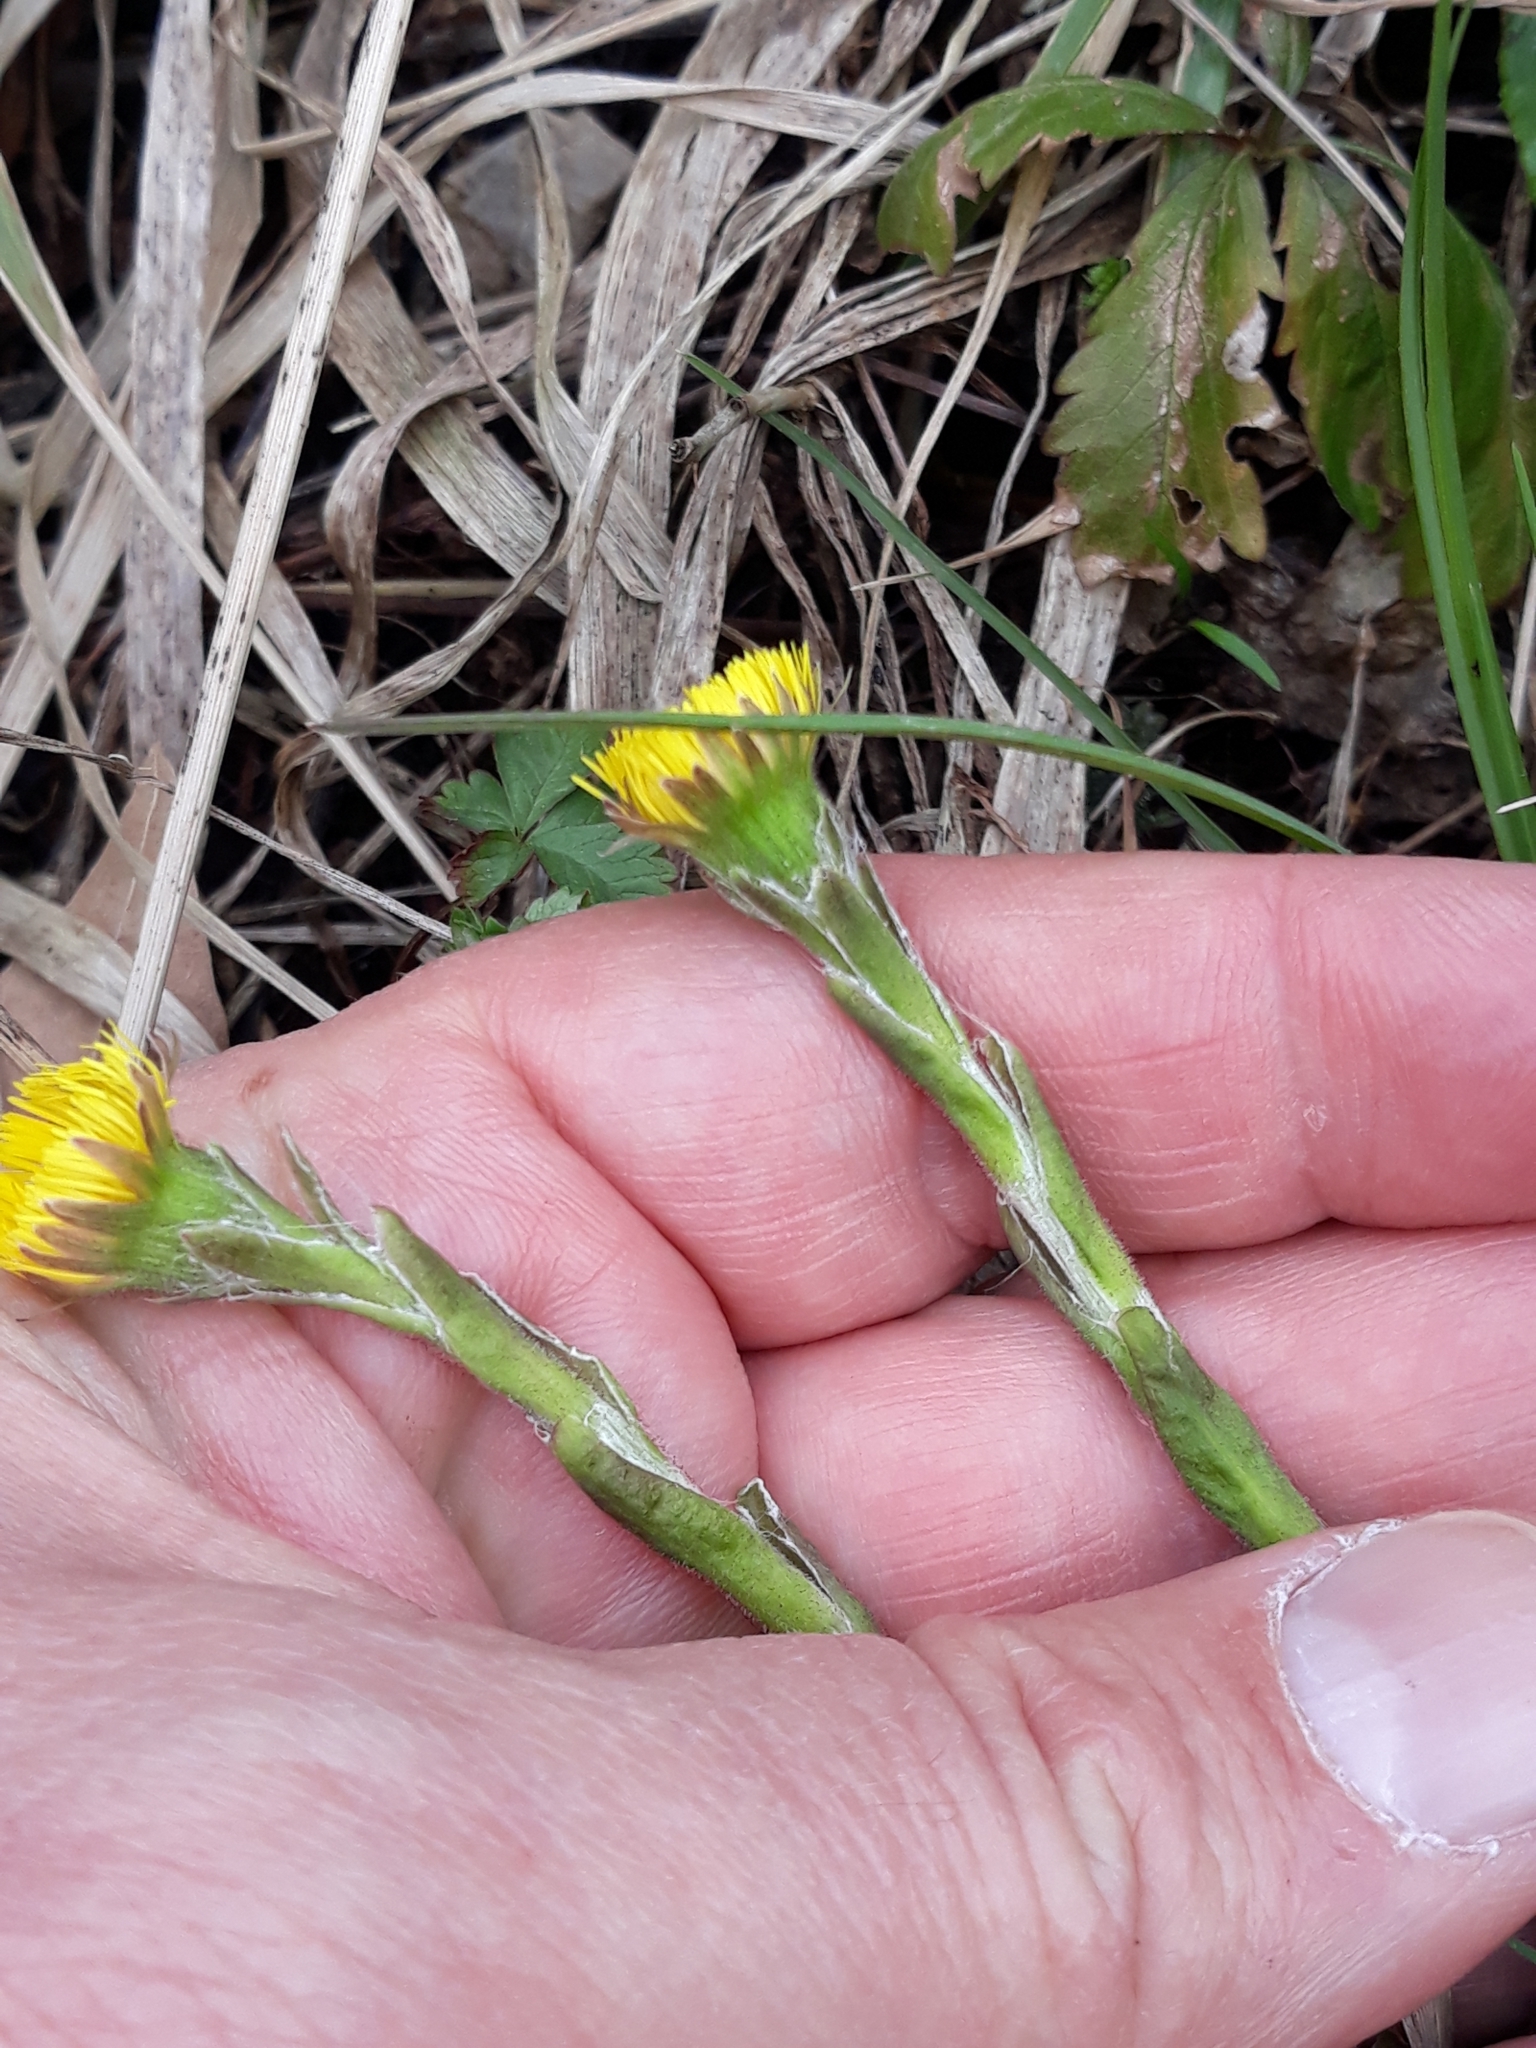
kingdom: Plantae
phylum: Tracheophyta
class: Magnoliopsida
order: Asterales
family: Asteraceae
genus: Tussilago
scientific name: Tussilago farfara
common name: Coltsfoot
